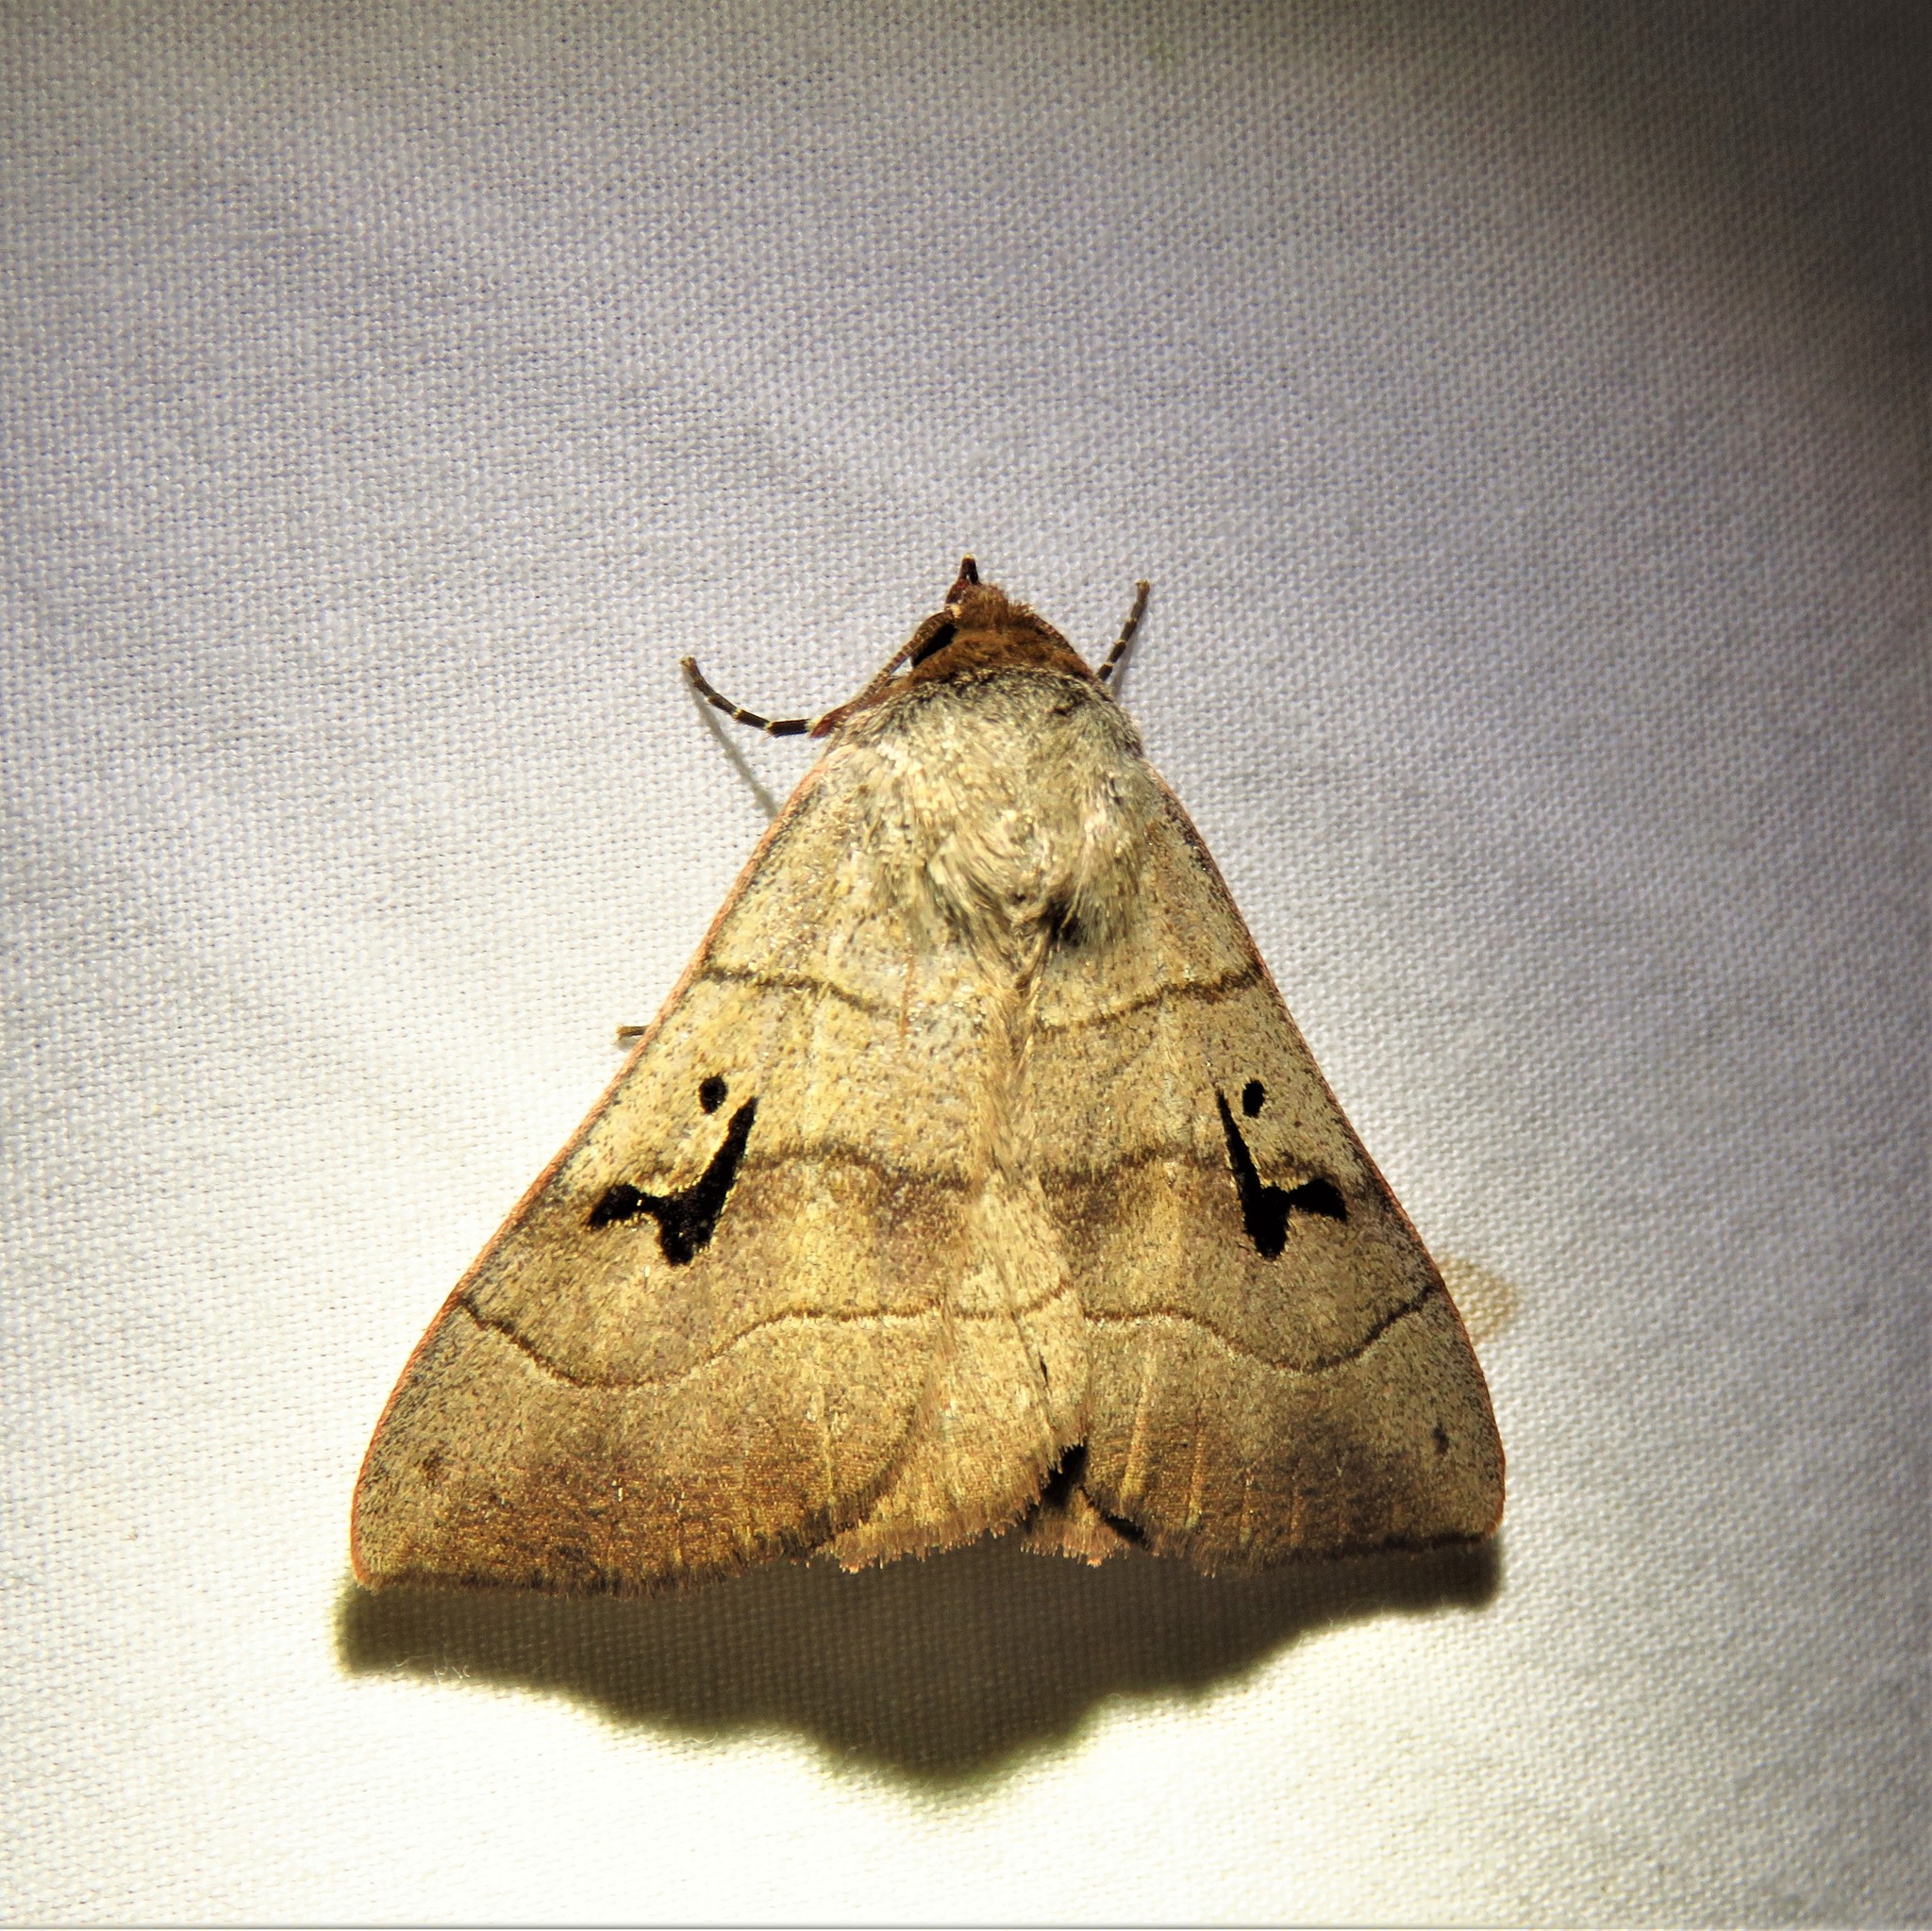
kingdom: Animalia
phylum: Arthropoda
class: Insecta
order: Lepidoptera
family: Erebidae
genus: Panopoda
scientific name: Panopoda carneicosta
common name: Brown panopoda moth
